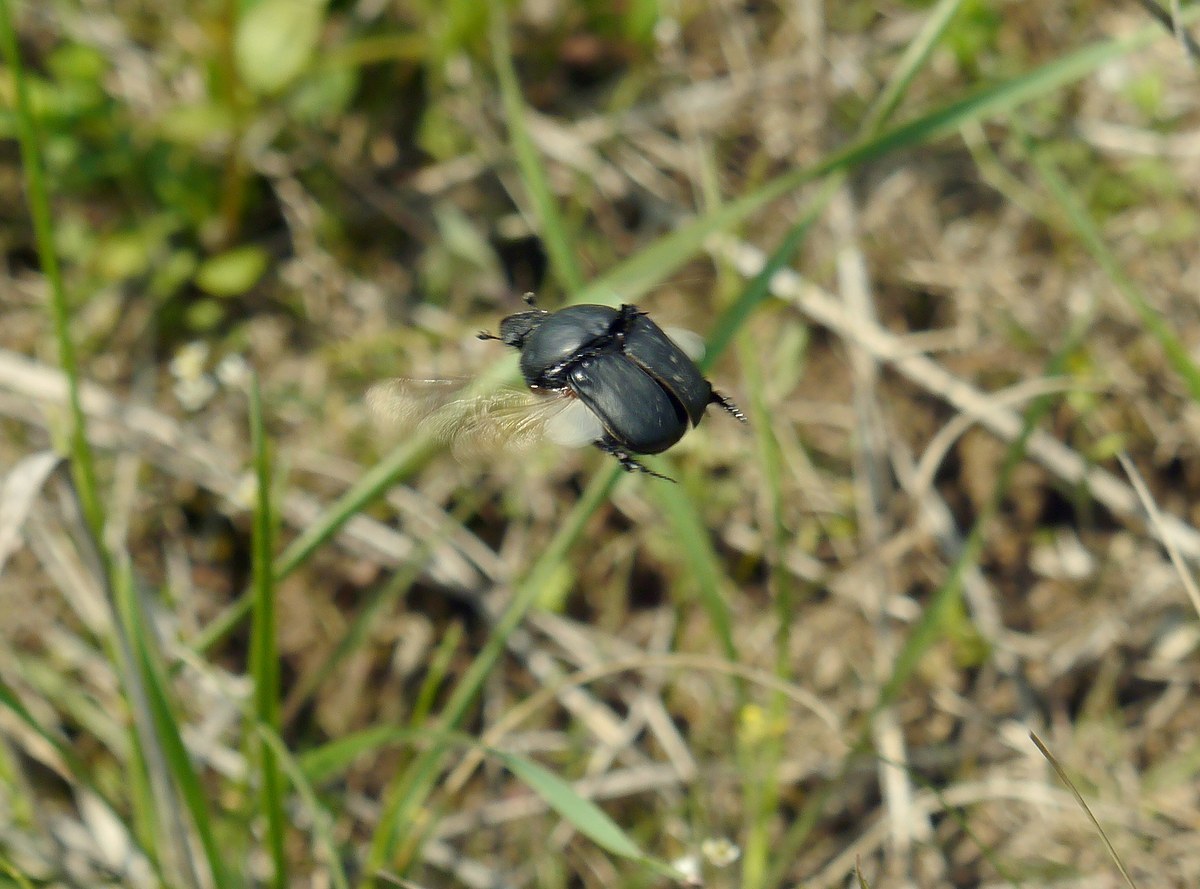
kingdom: Animalia
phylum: Arthropoda
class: Insecta
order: Coleoptera
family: Scarabaeidae
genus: Onitis
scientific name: Onitis damoetas
